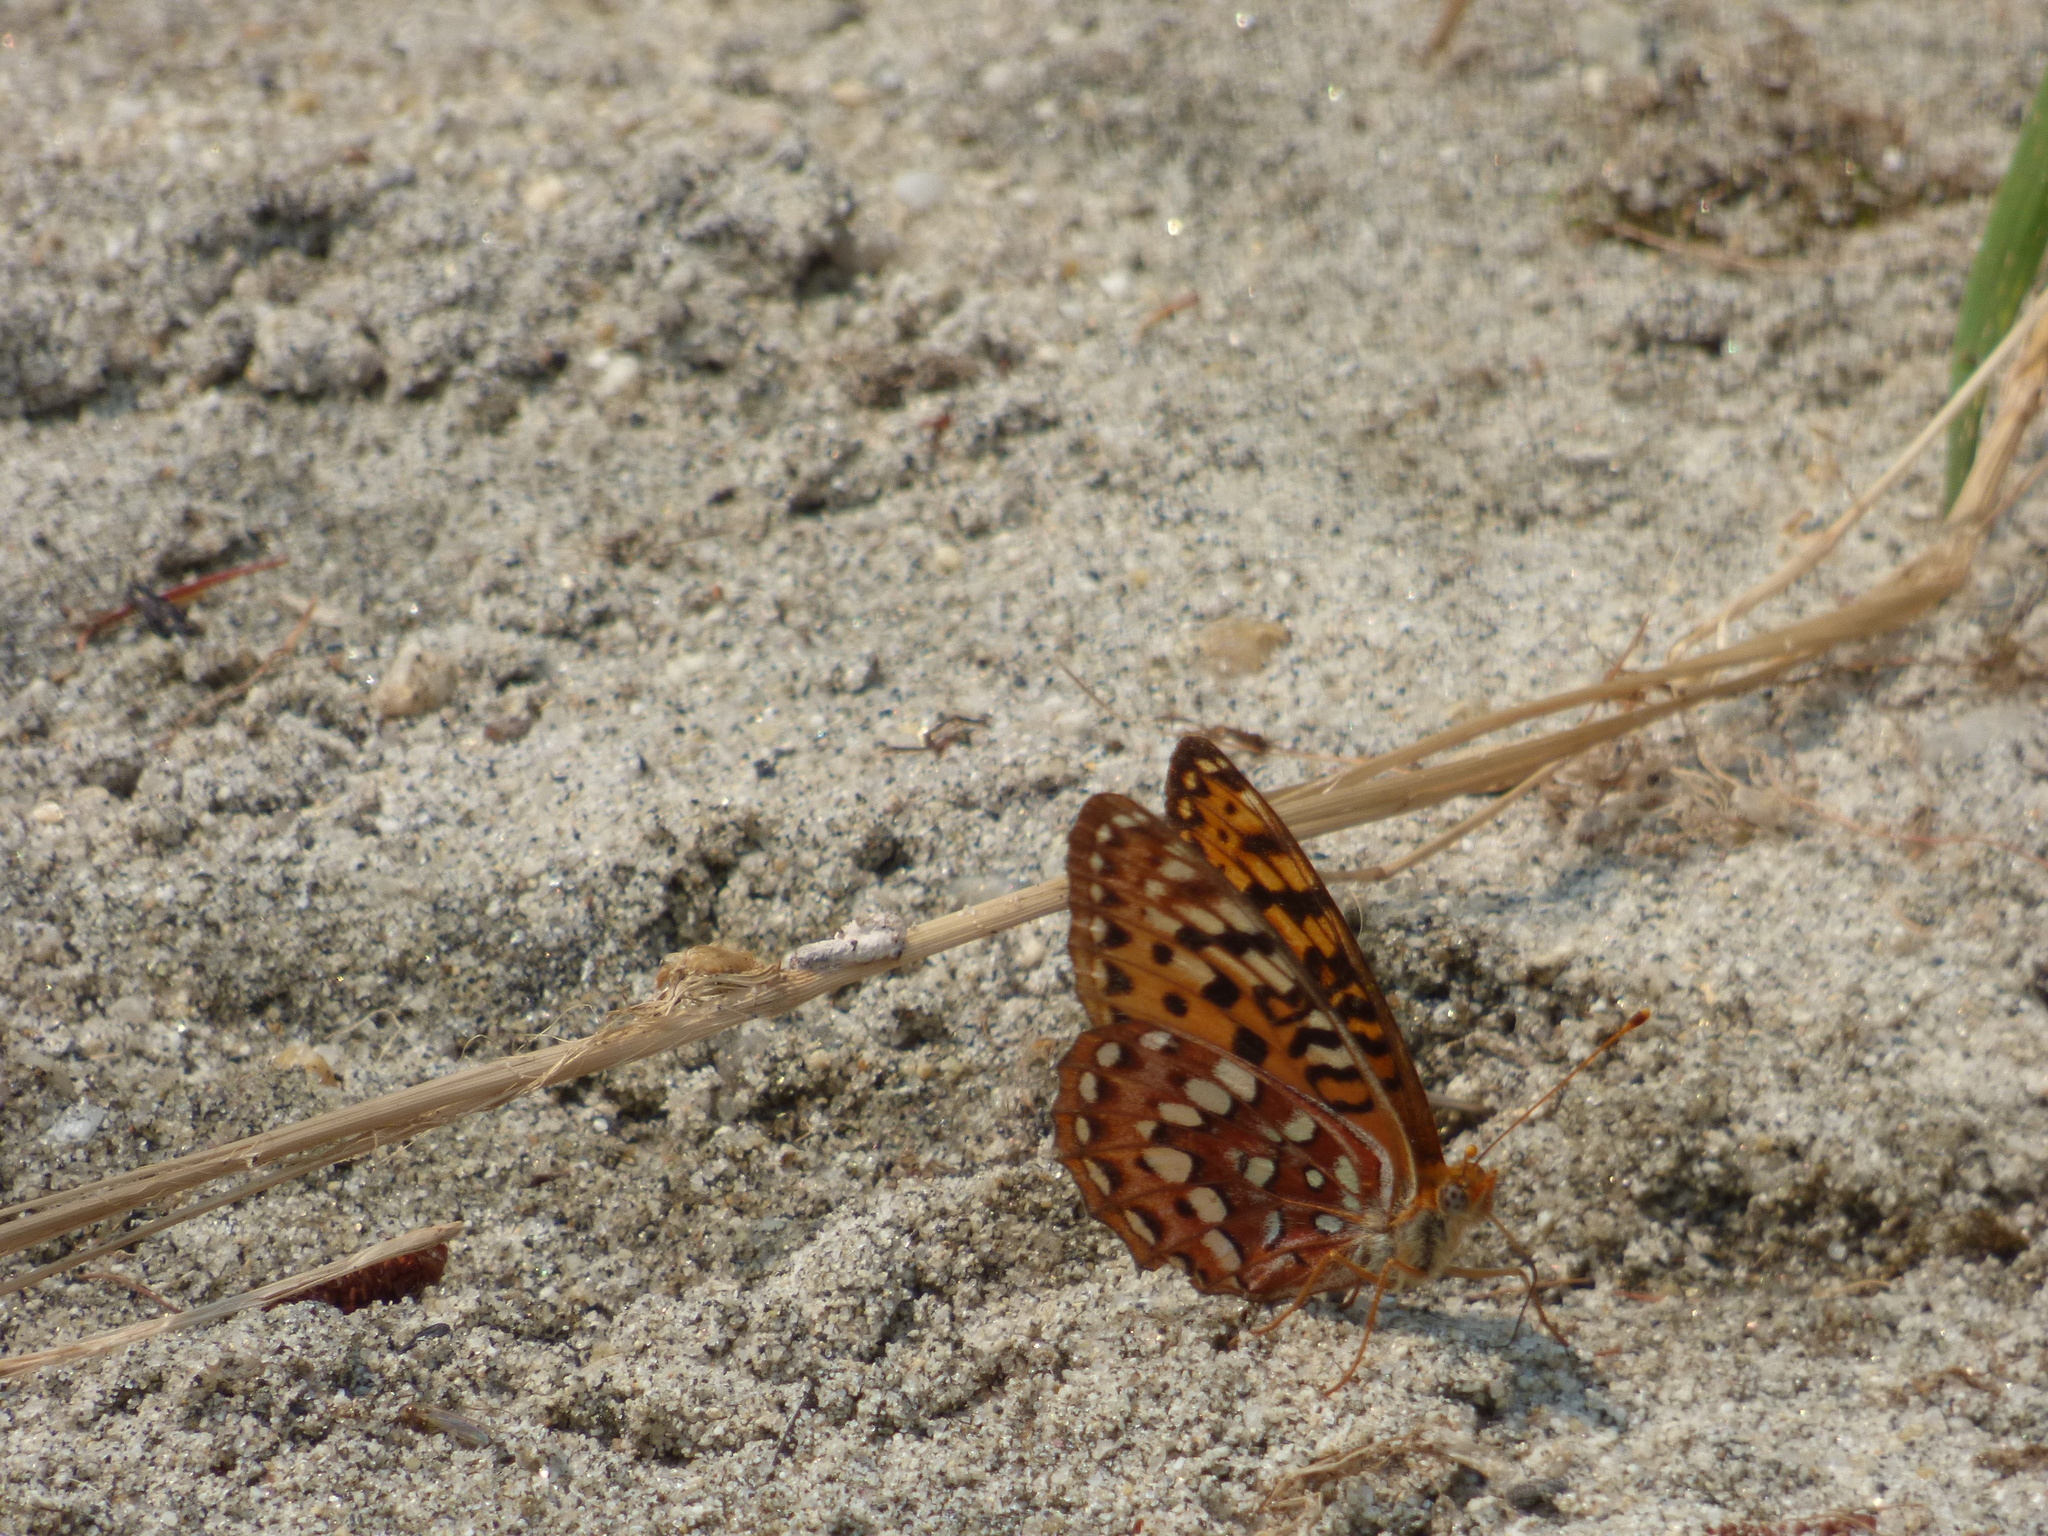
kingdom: Animalia
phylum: Arthropoda
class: Insecta
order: Lepidoptera
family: Nymphalidae
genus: Speyeria
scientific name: Speyeria hydaspe
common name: Hydaspe fritillary
